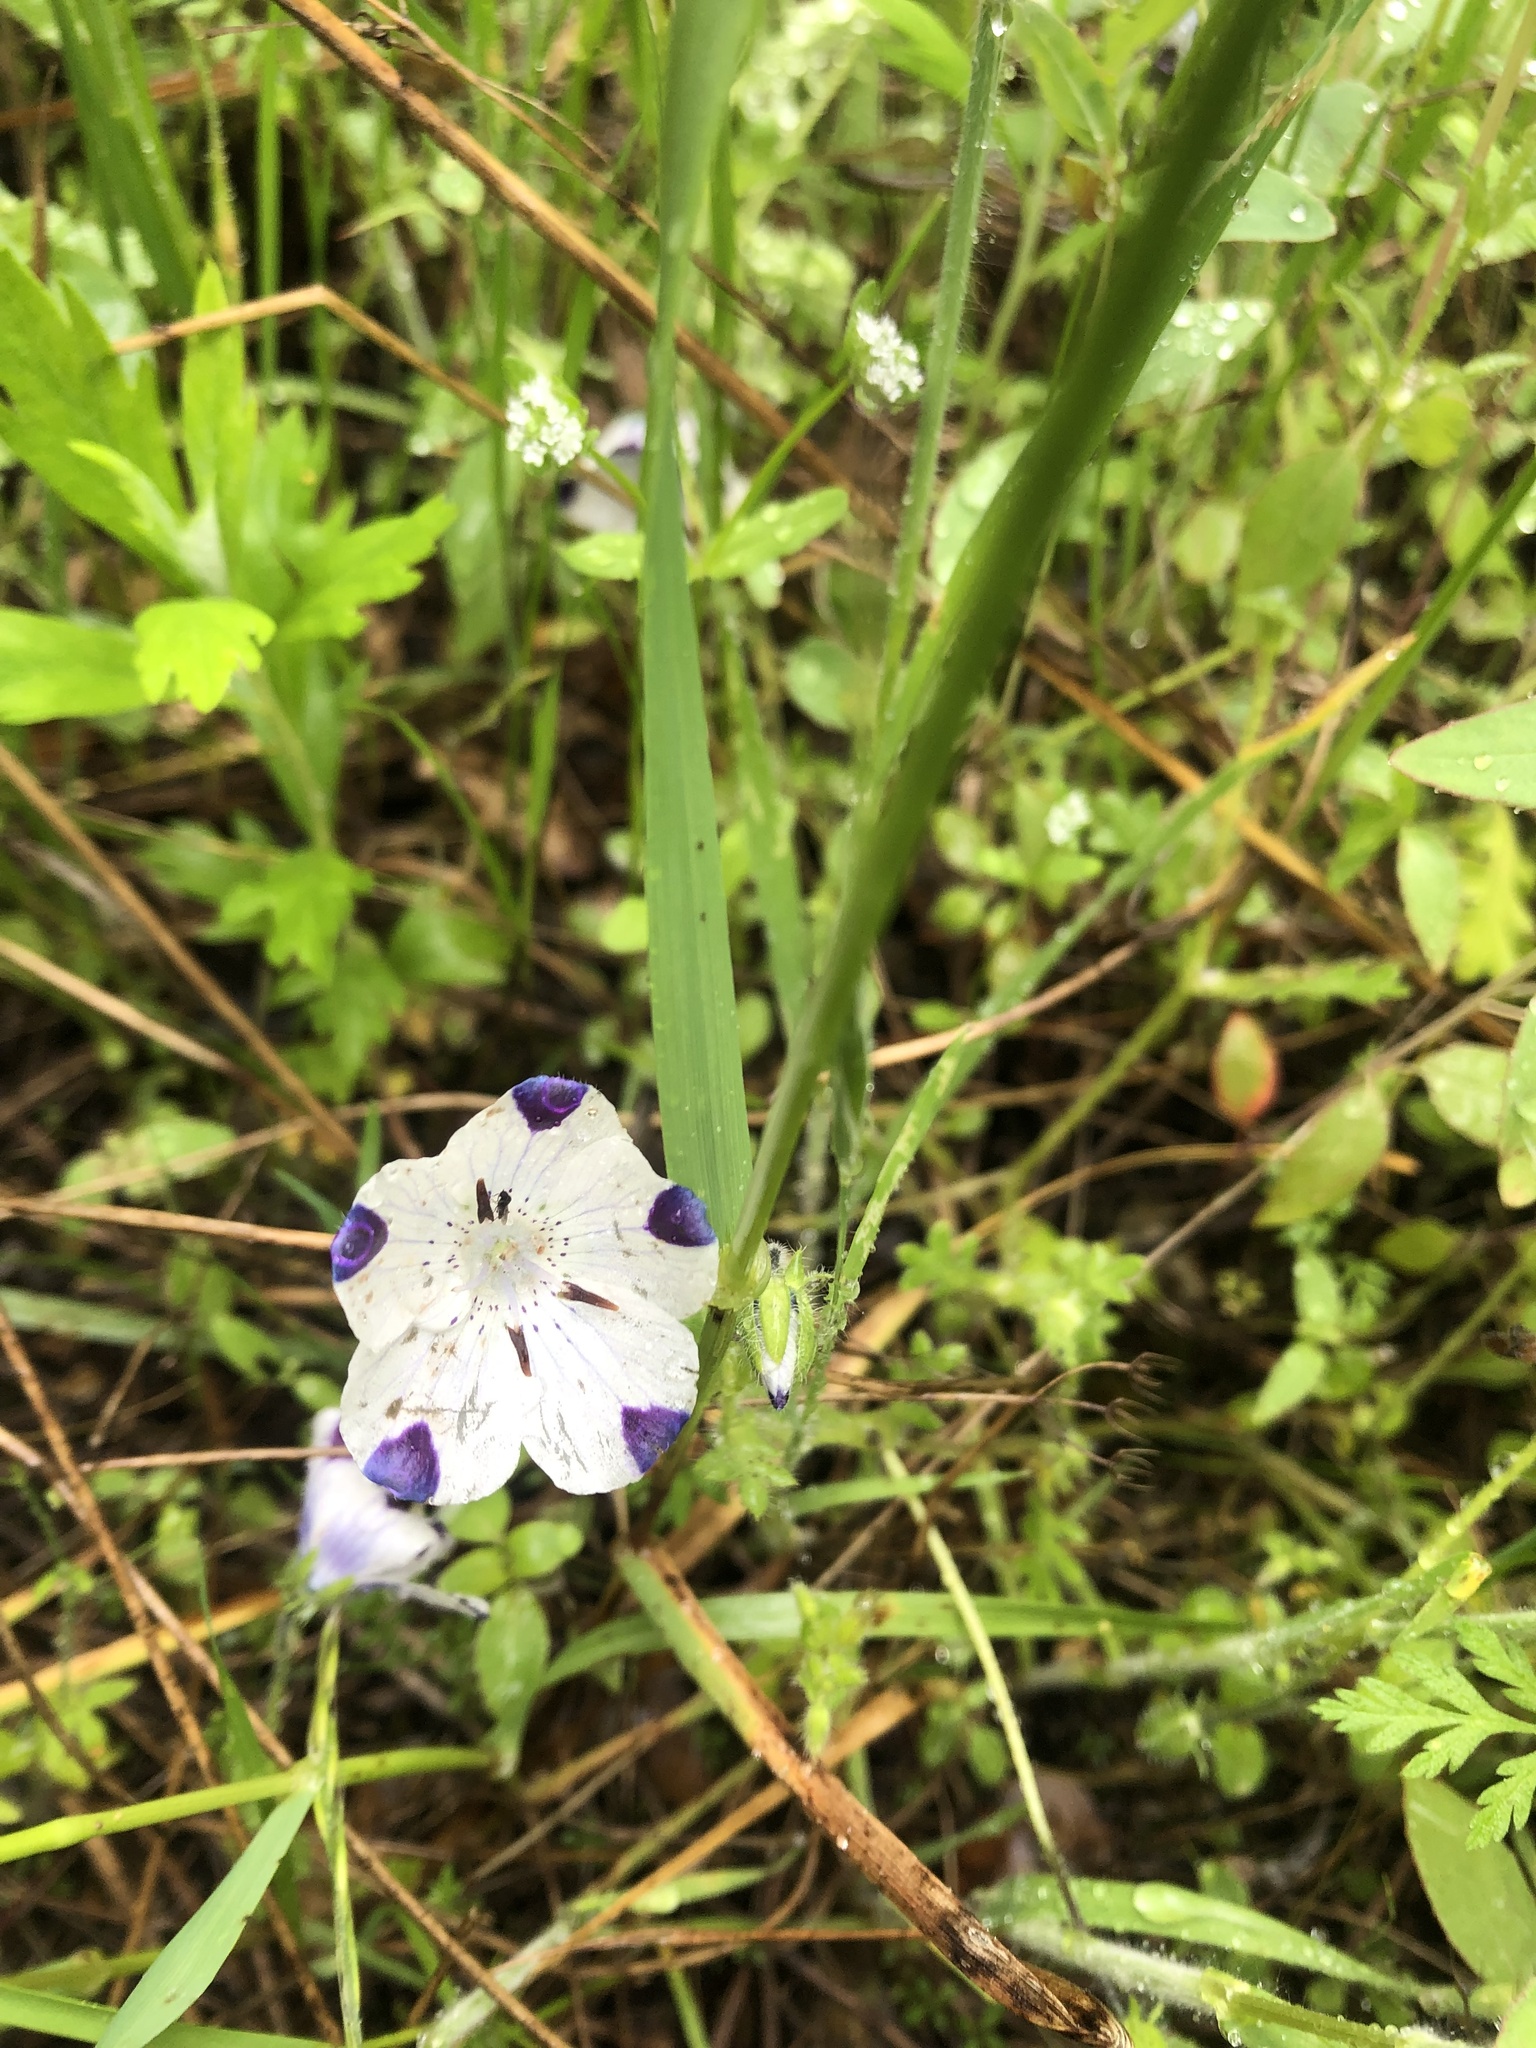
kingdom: Plantae
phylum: Tracheophyta
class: Magnoliopsida
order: Boraginales
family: Hydrophyllaceae
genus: Nemophila
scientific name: Nemophila maculata
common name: Fivespot
